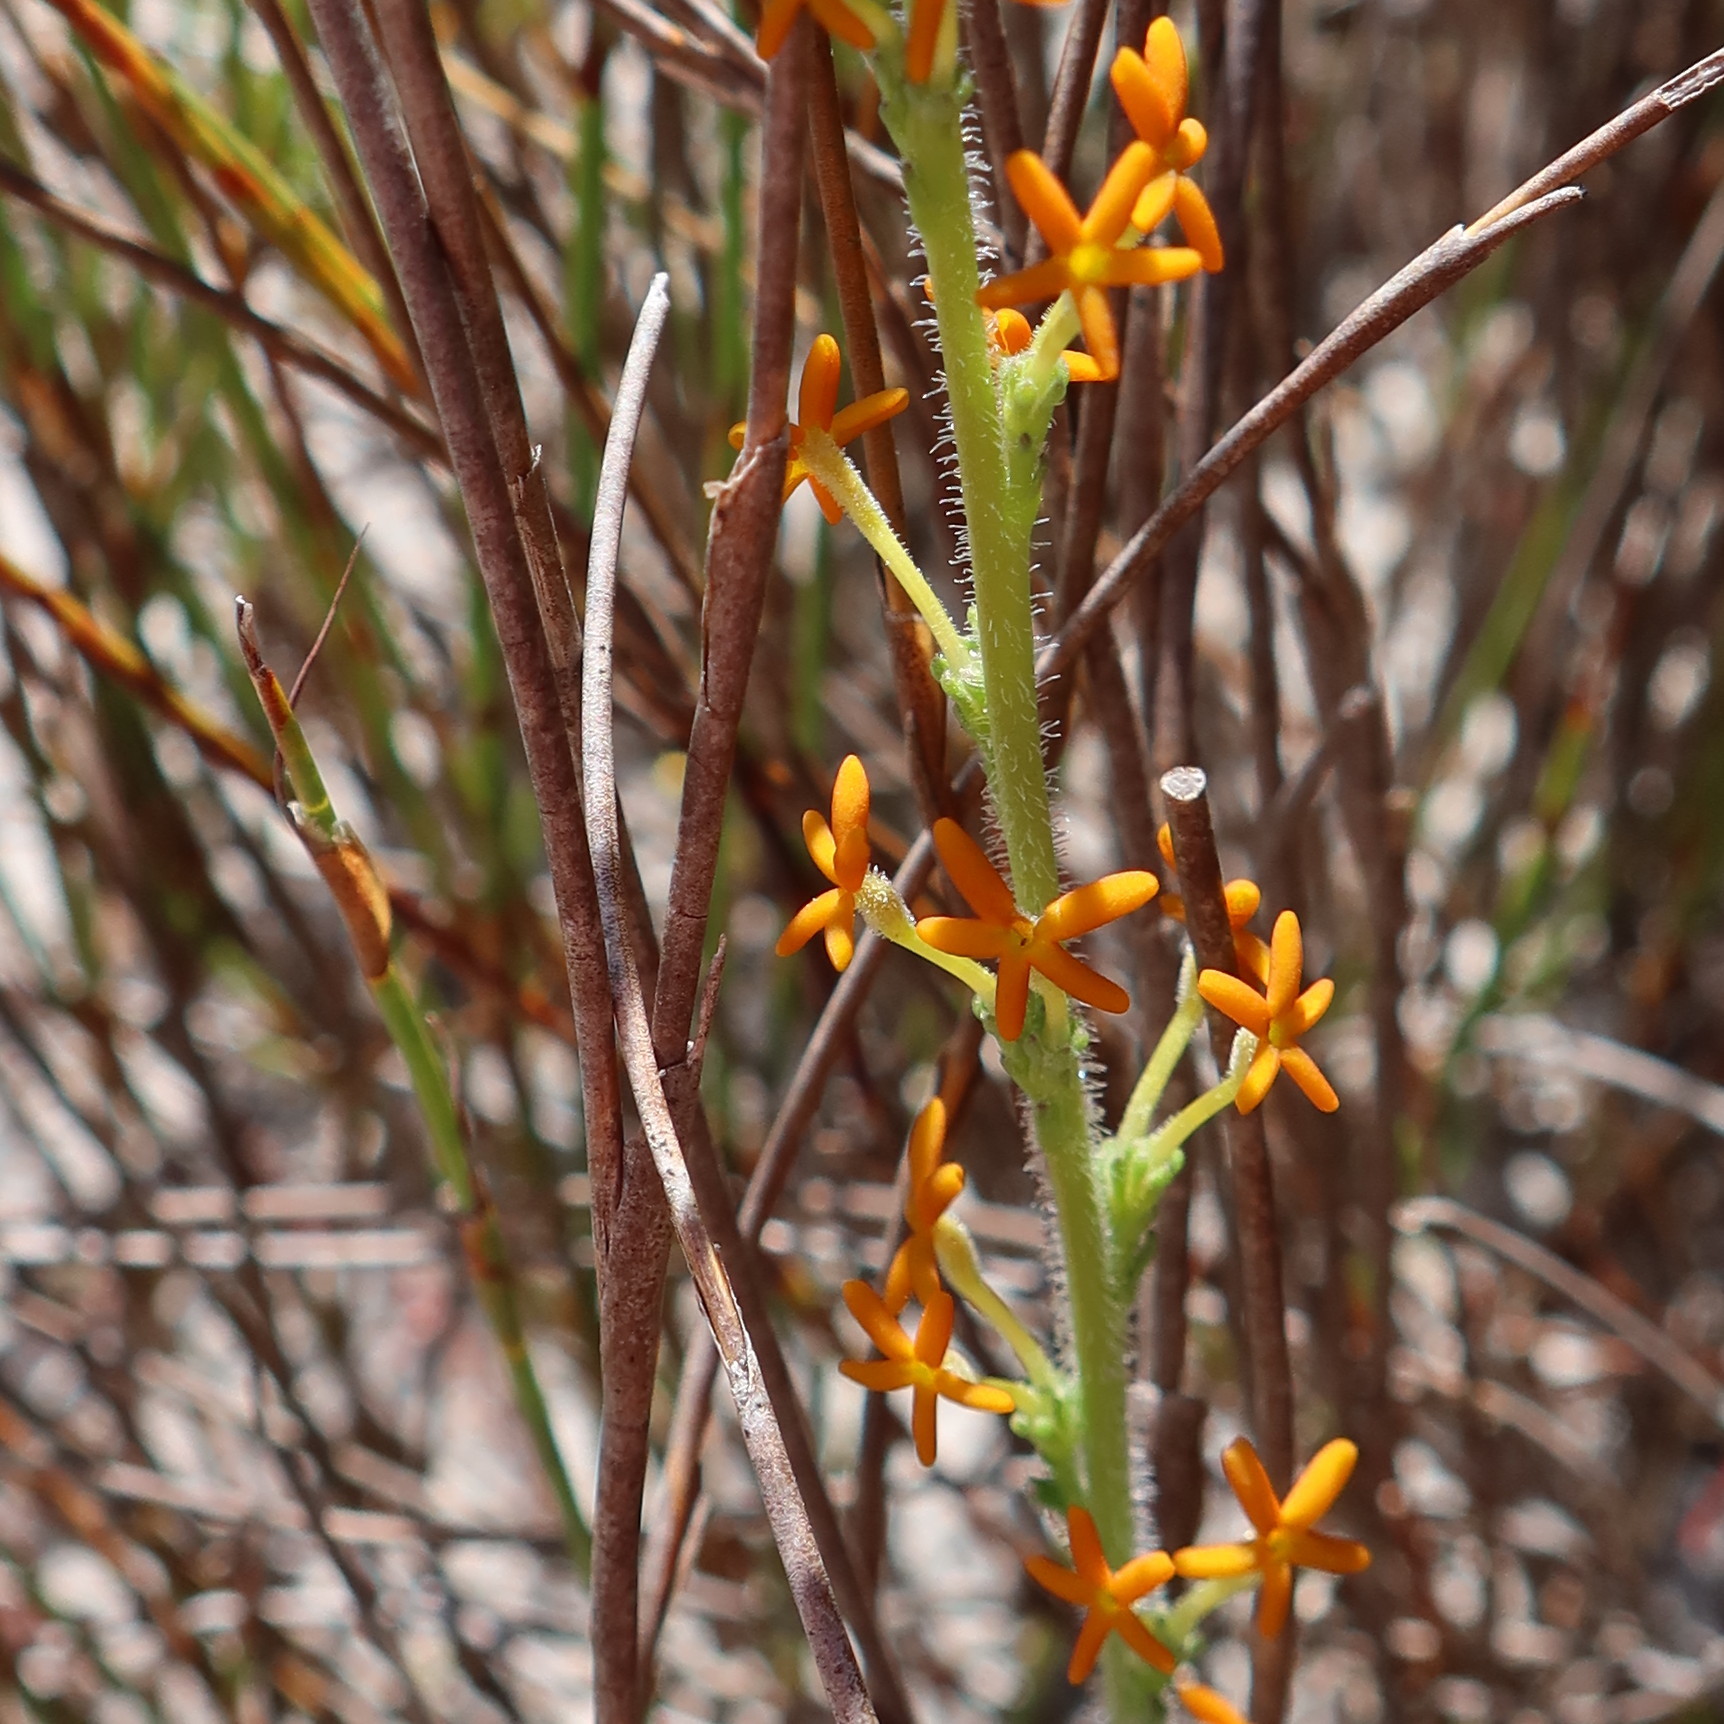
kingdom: Plantae
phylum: Tracheophyta
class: Magnoliopsida
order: Lamiales
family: Scrophulariaceae
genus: Manulea
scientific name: Manulea rubra
